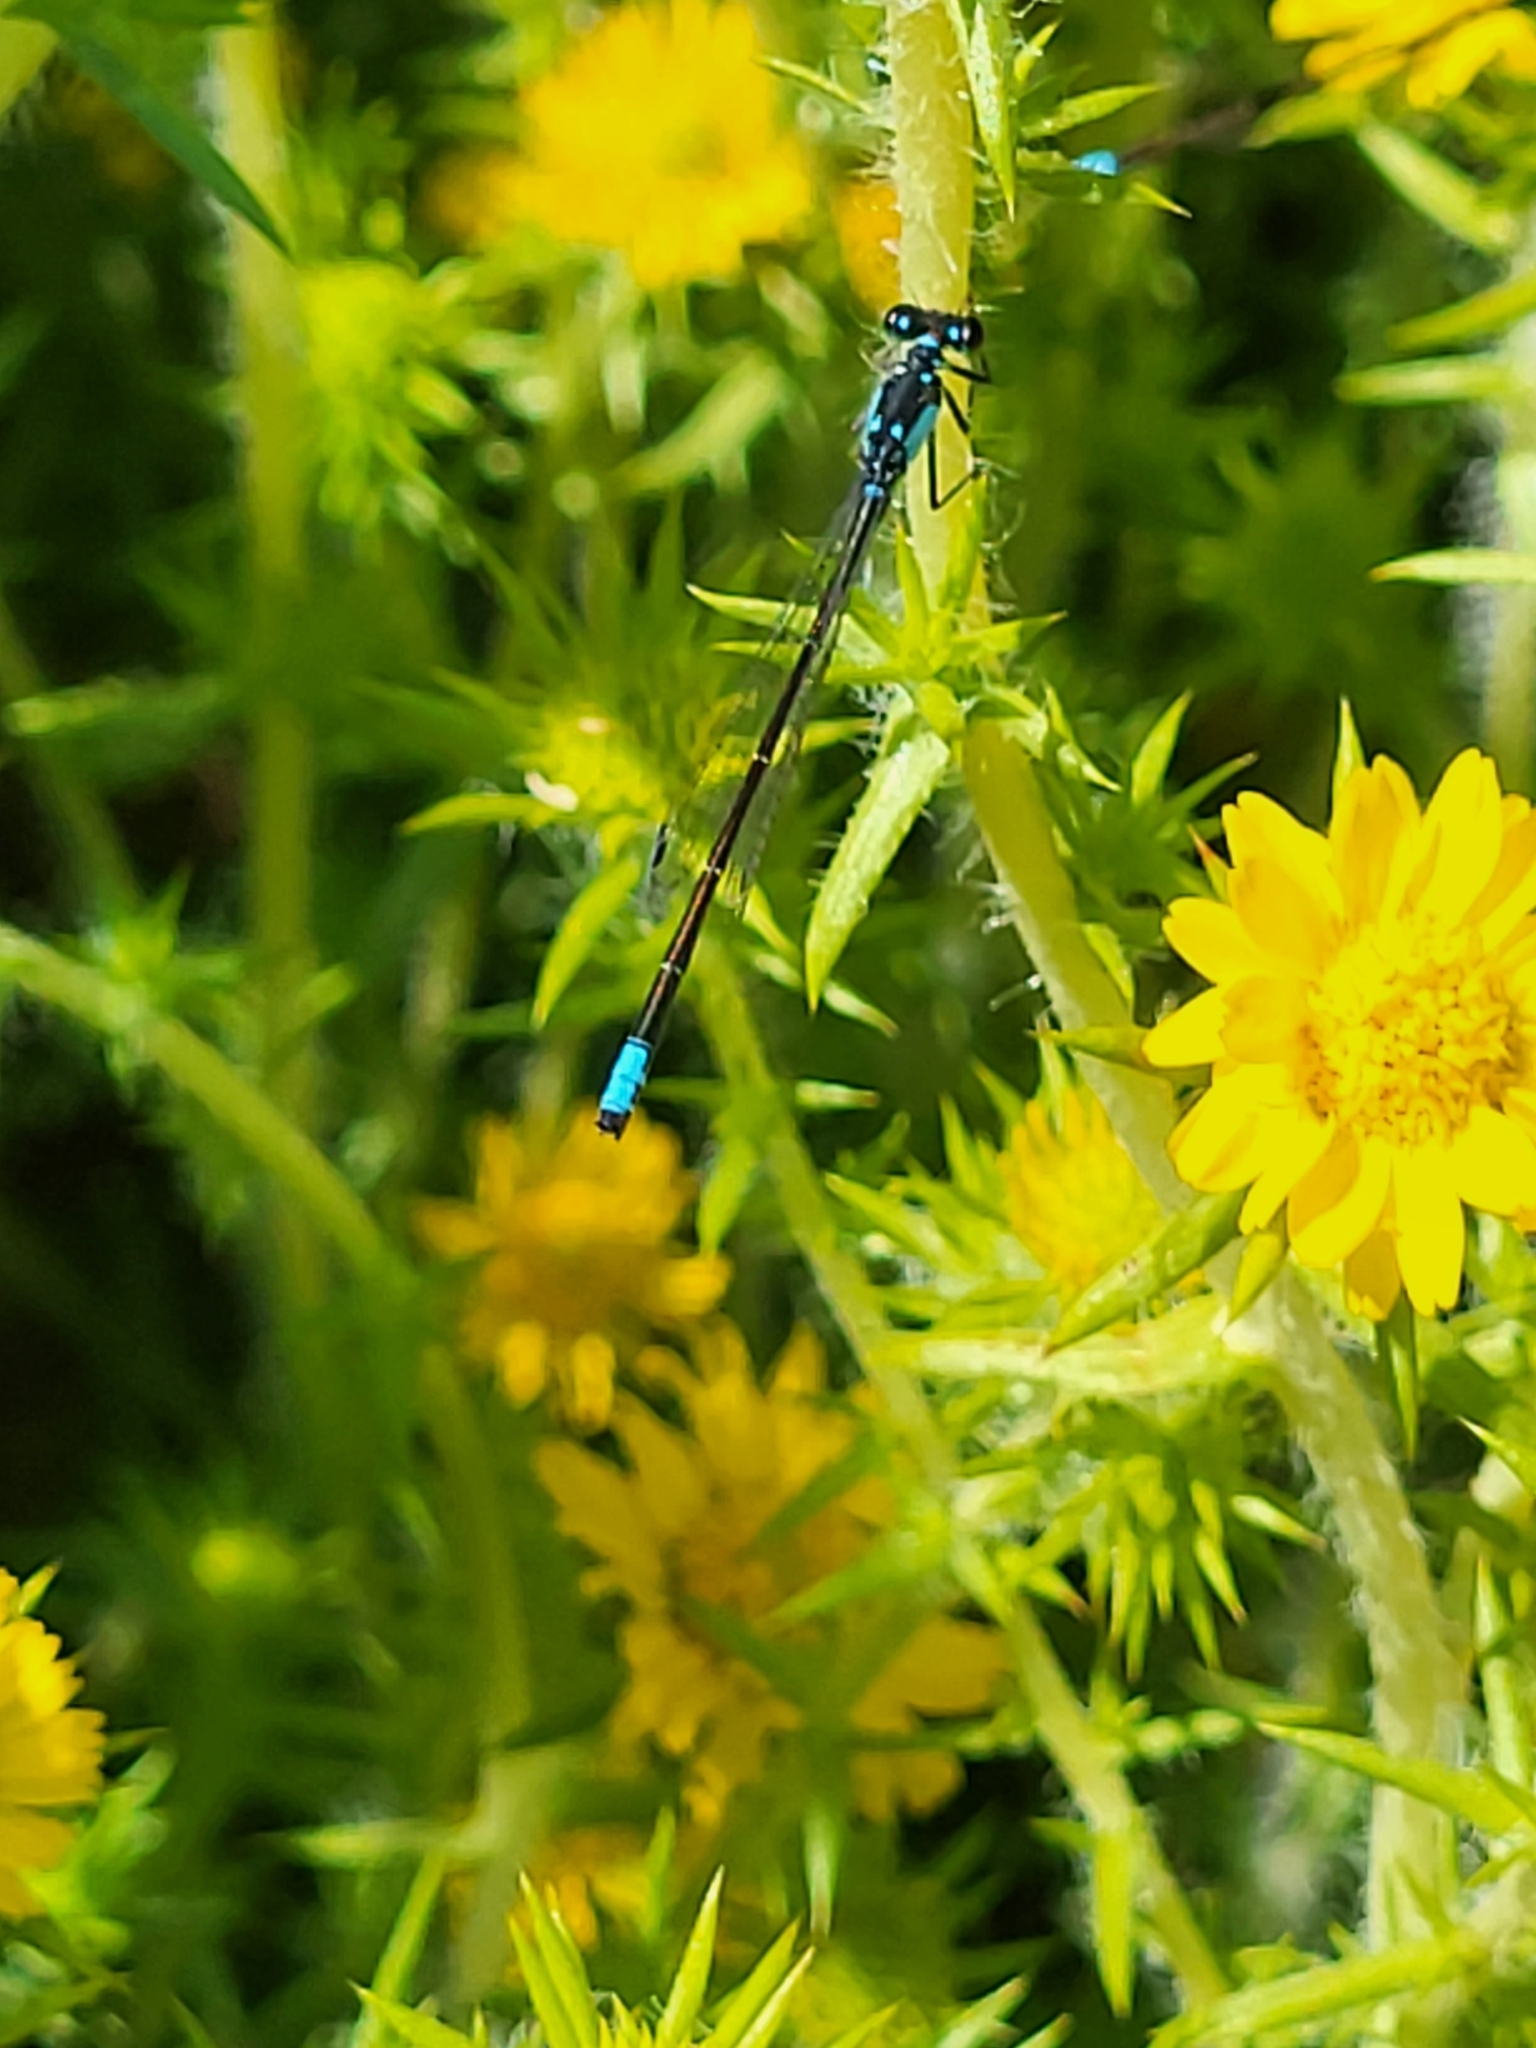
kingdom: Animalia
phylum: Arthropoda
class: Insecta
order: Odonata
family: Coenagrionidae
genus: Ischnura
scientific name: Ischnura cervula
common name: Pacific forktail
